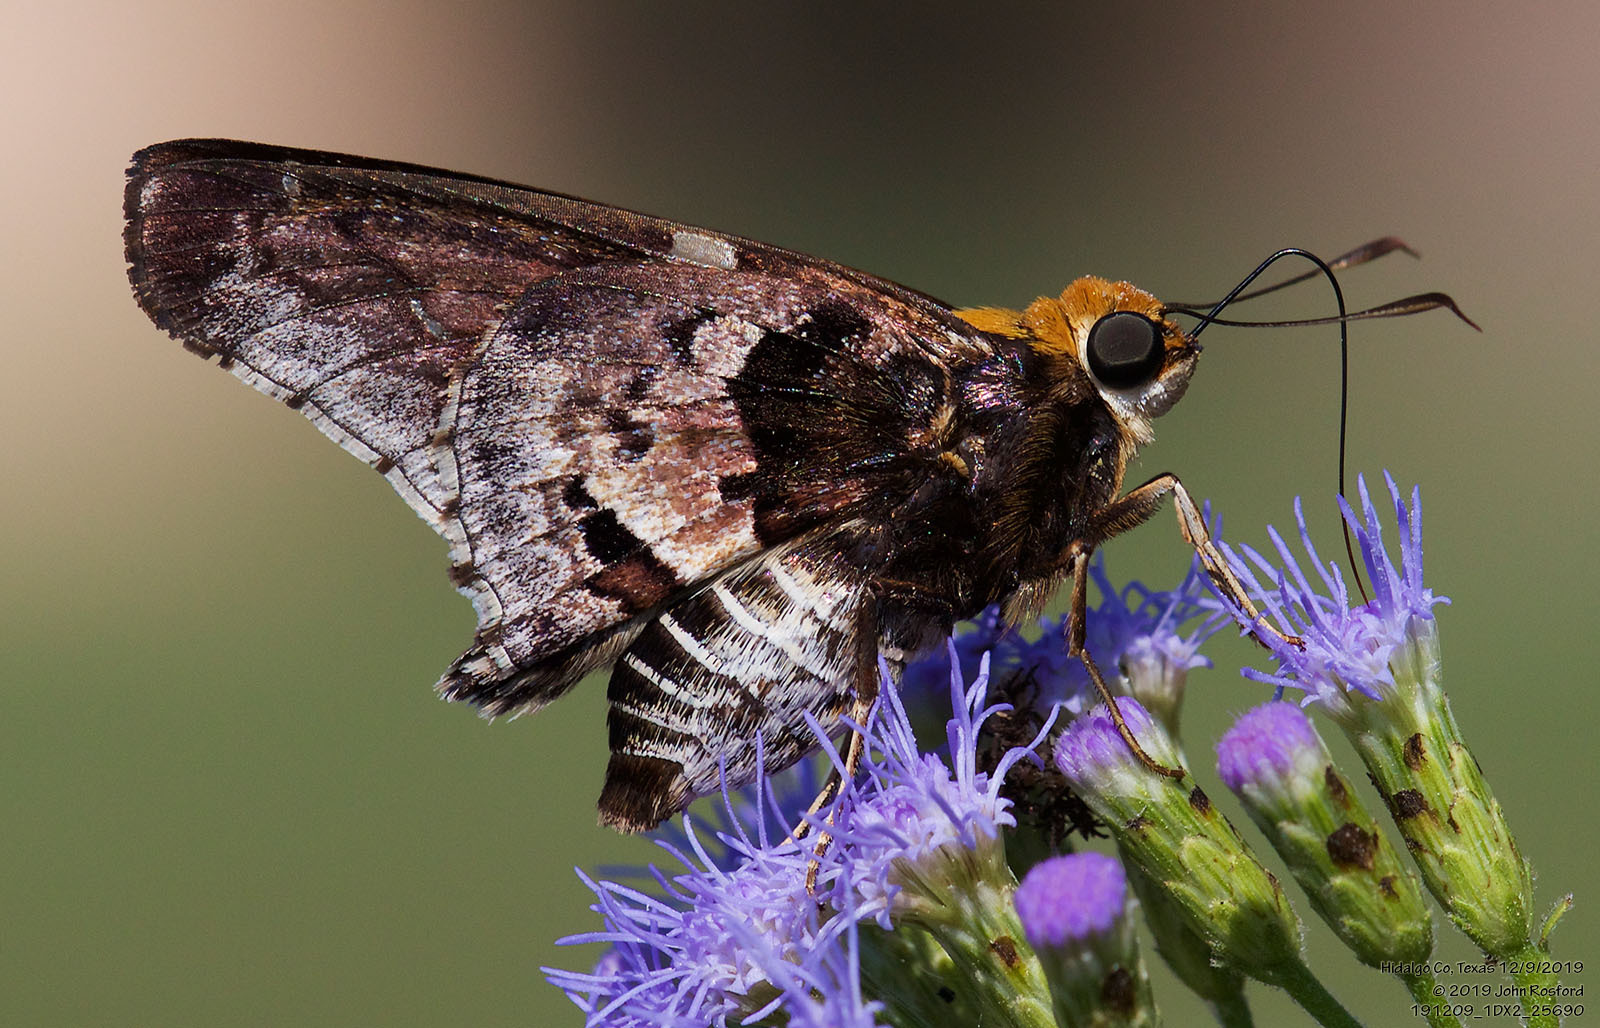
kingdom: Animalia
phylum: Arthropoda
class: Insecta
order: Lepidoptera
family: Hesperiidae
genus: Proteides
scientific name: Proteides mercurius
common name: Mercurial skipper
